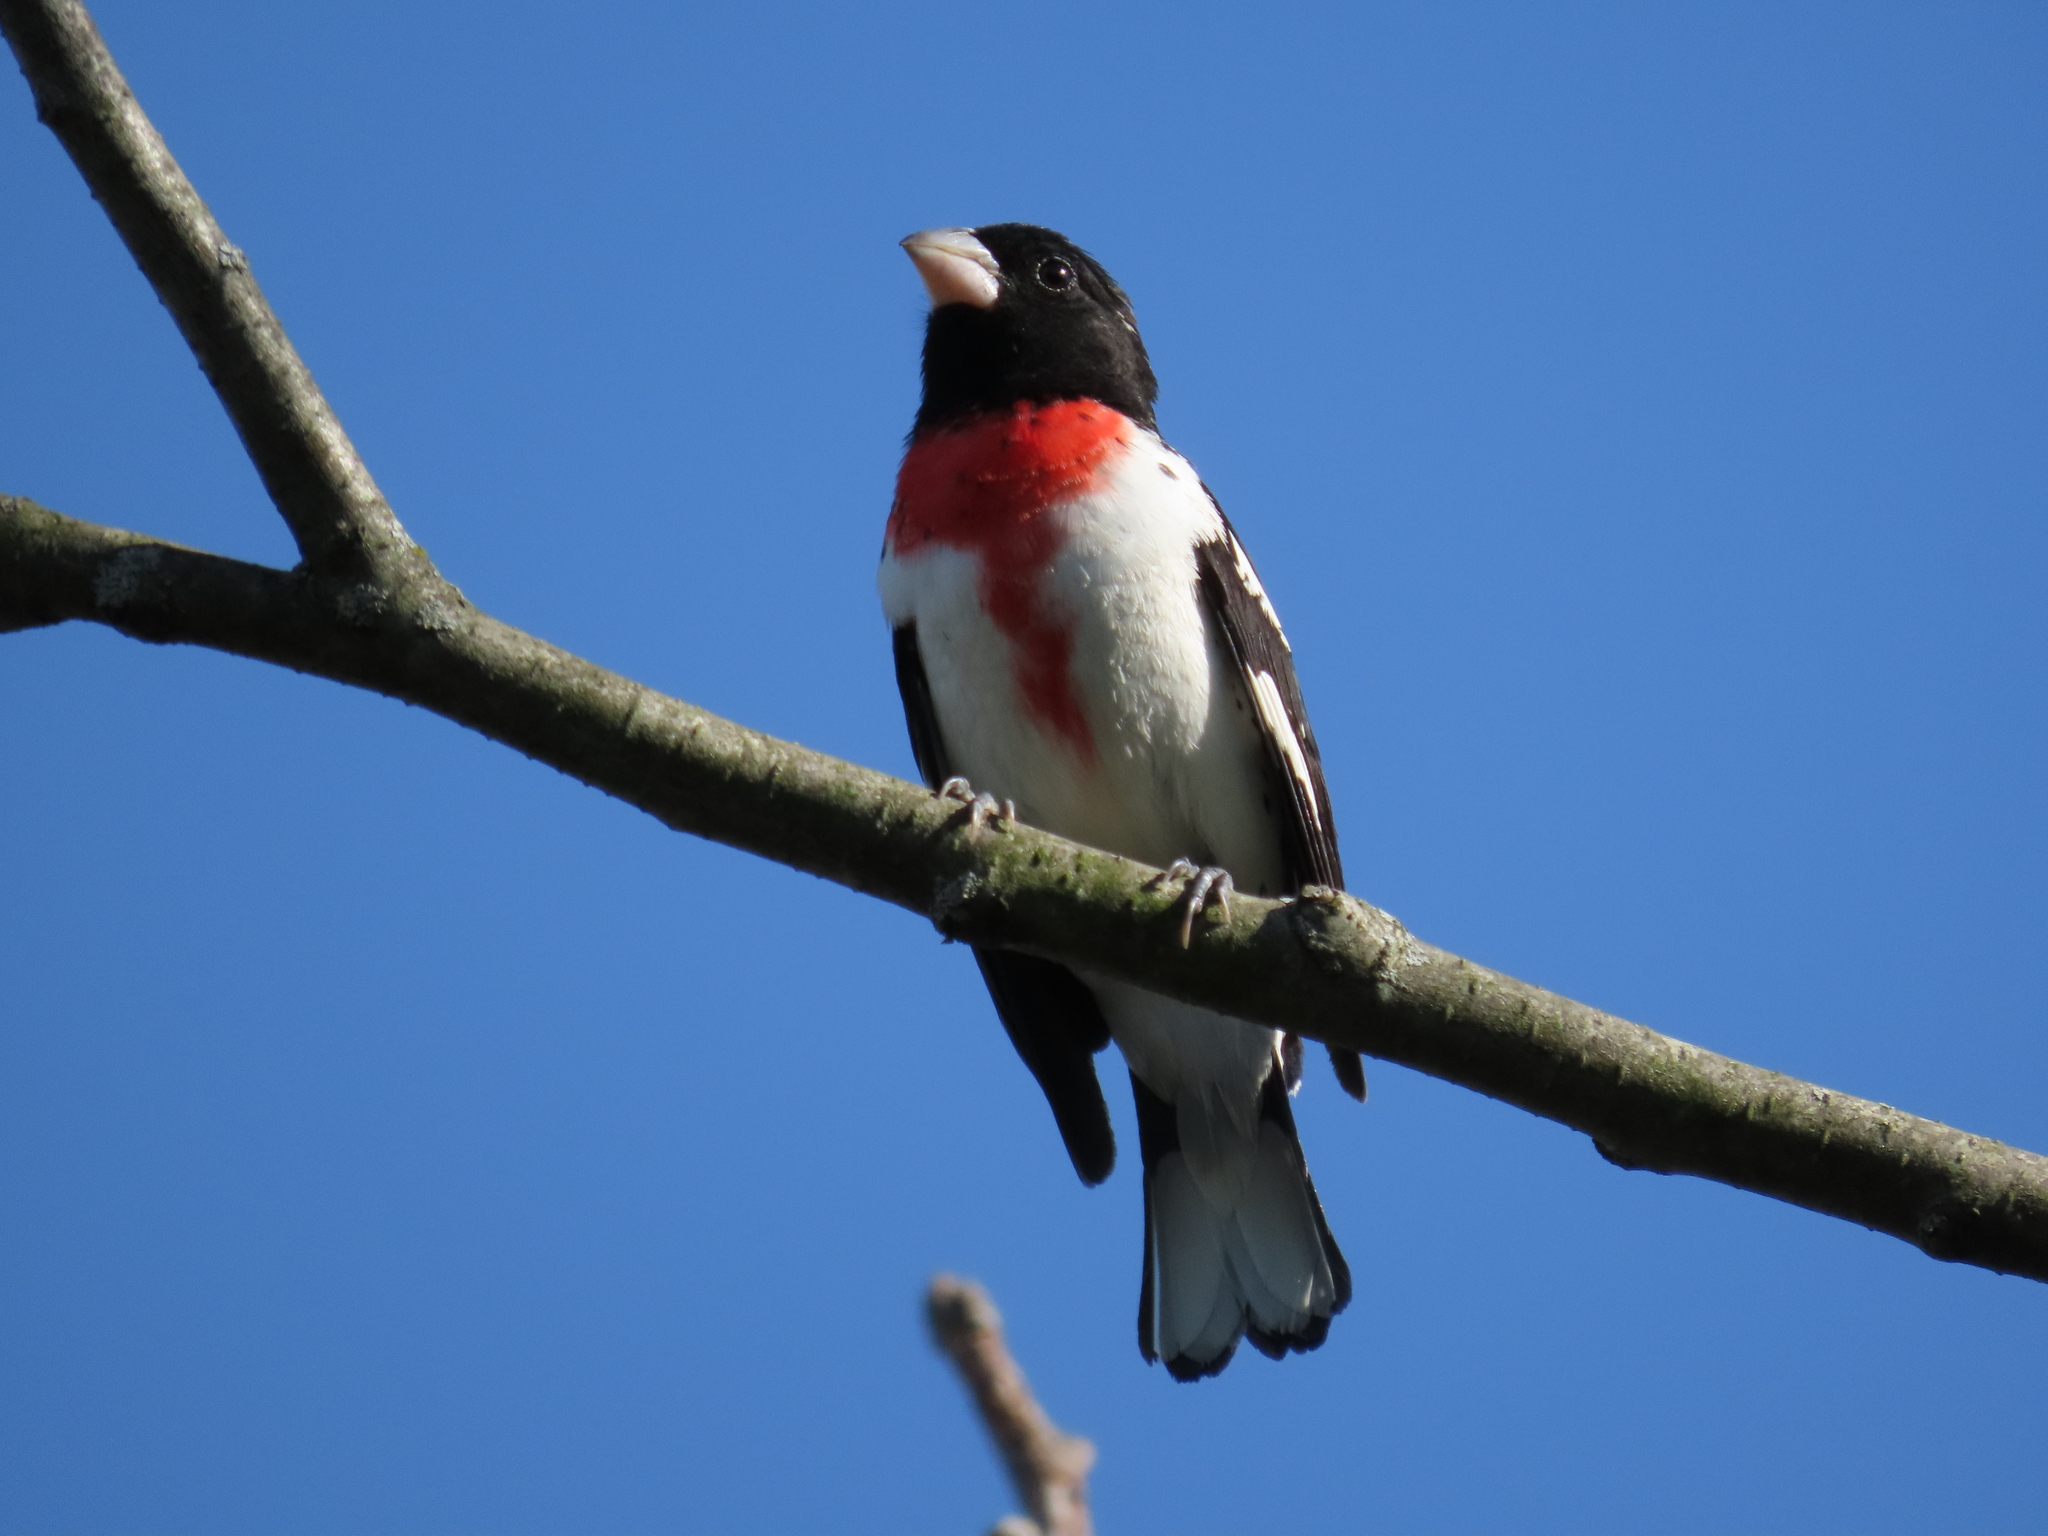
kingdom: Animalia
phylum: Chordata
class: Aves
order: Passeriformes
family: Cardinalidae
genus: Pheucticus
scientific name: Pheucticus ludovicianus
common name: Rose-breasted grosbeak
